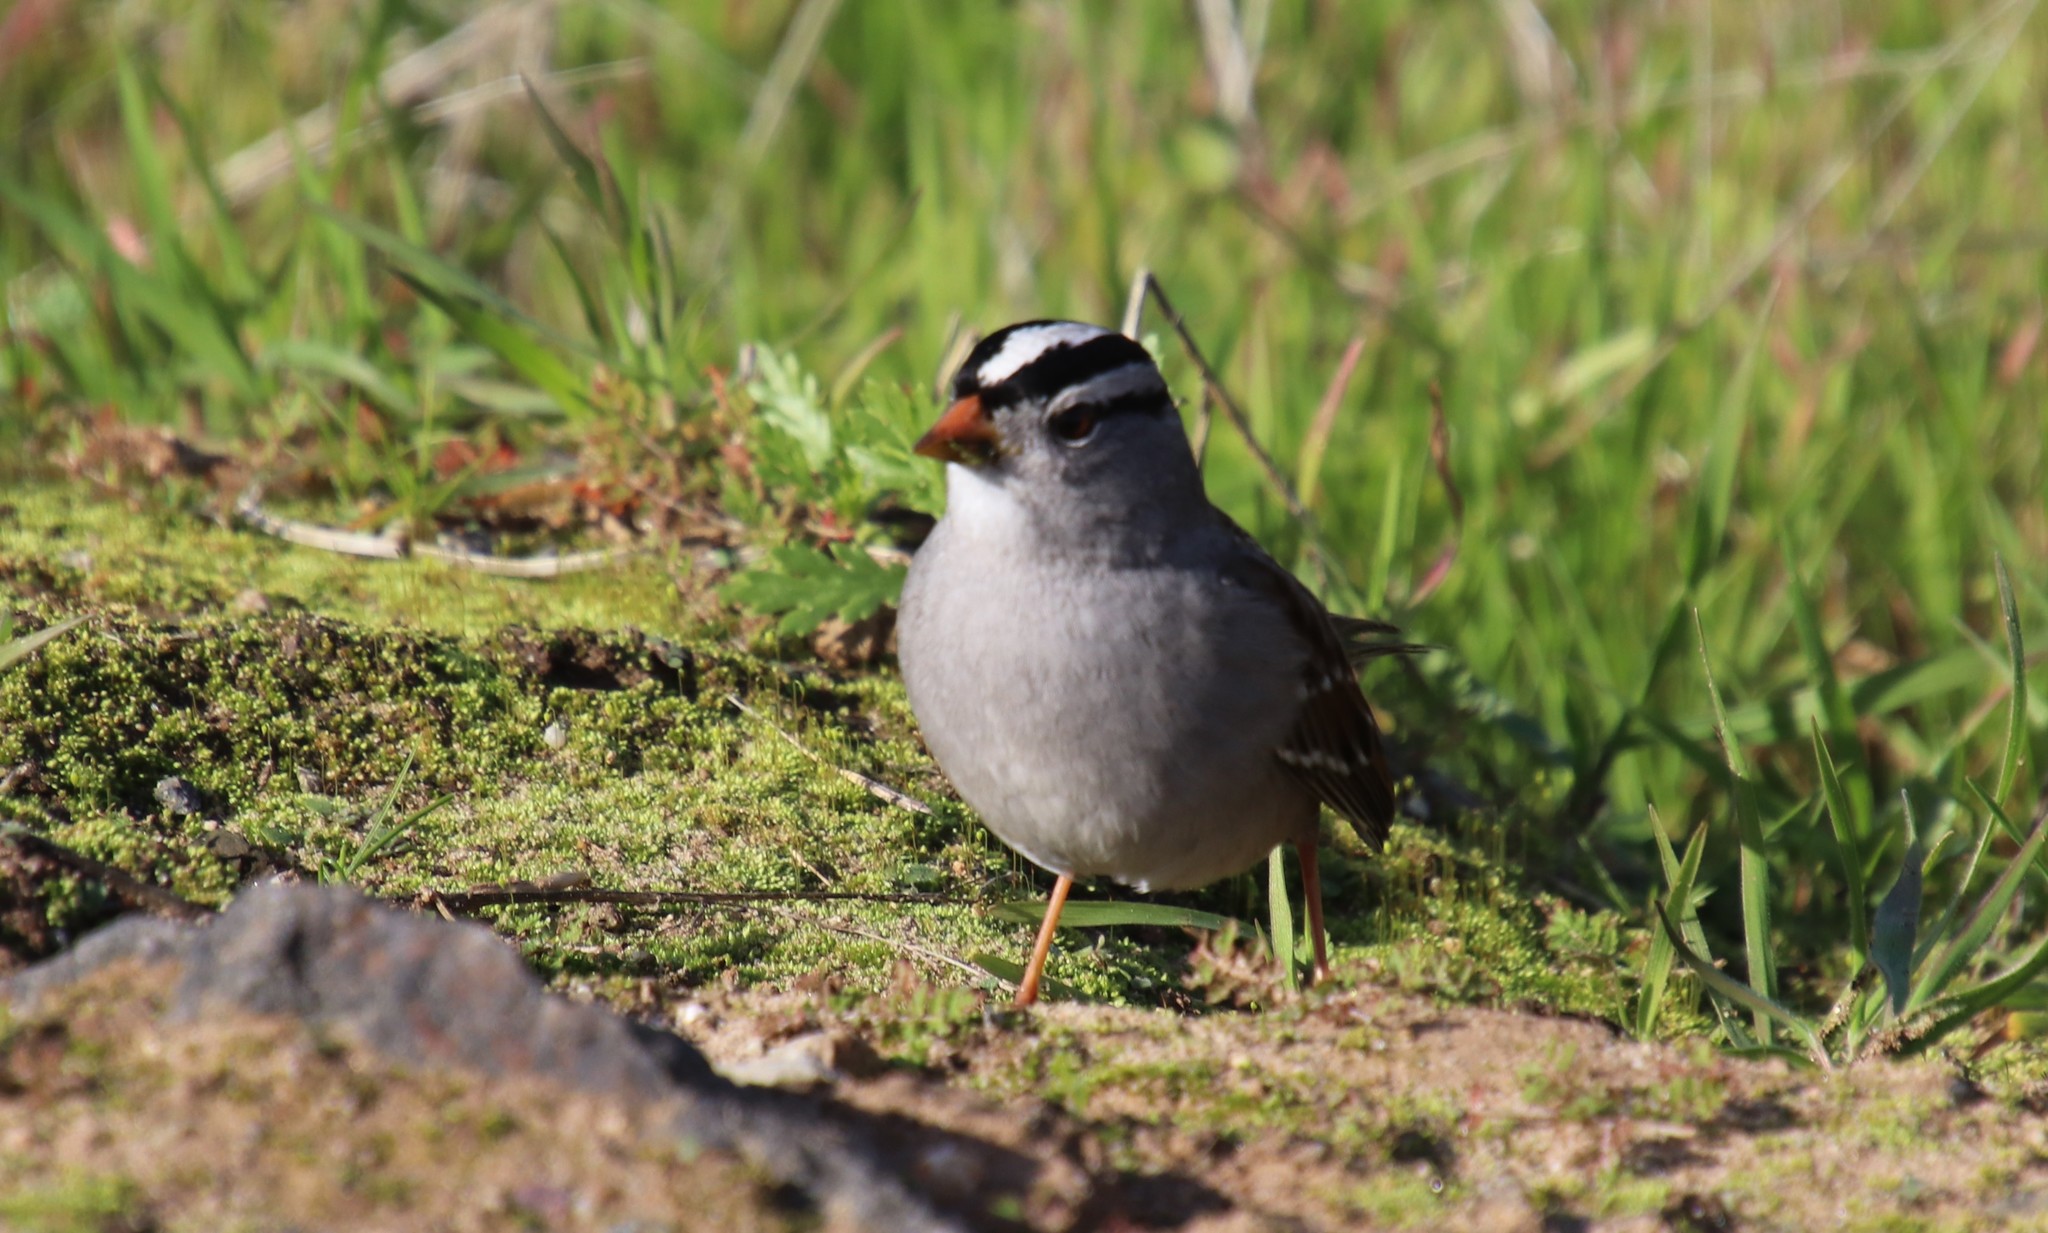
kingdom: Animalia
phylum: Chordata
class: Aves
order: Passeriformes
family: Passerellidae
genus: Zonotrichia
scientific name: Zonotrichia leucophrys
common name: White-crowned sparrow
